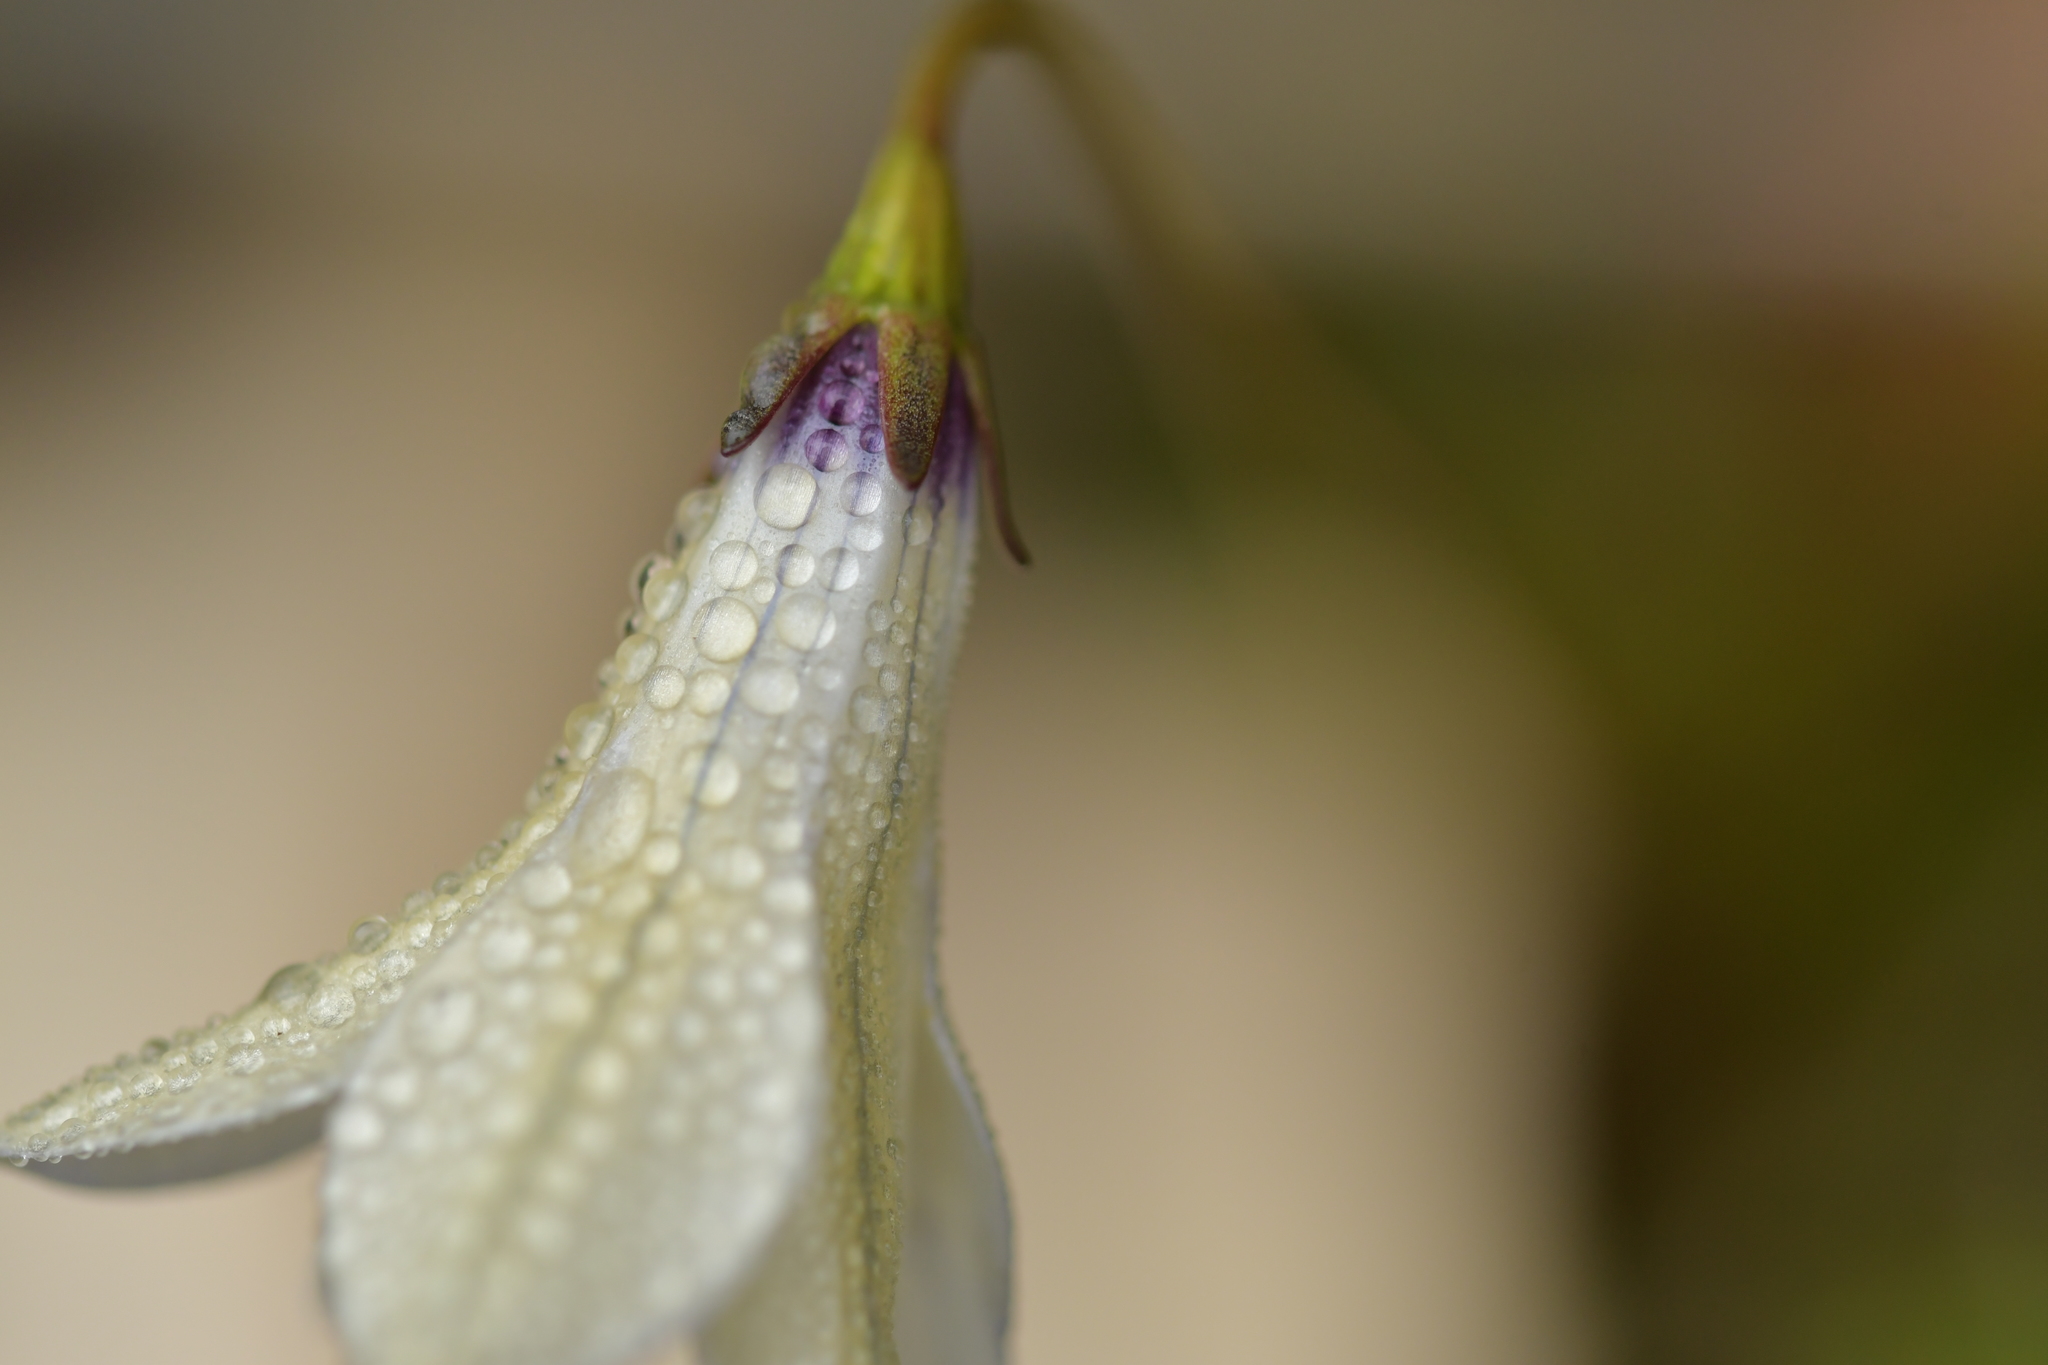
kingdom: Plantae
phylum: Tracheophyta
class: Magnoliopsida
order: Asterales
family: Campanulaceae
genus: Wahlenbergia
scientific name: Wahlenbergia albomarginata
